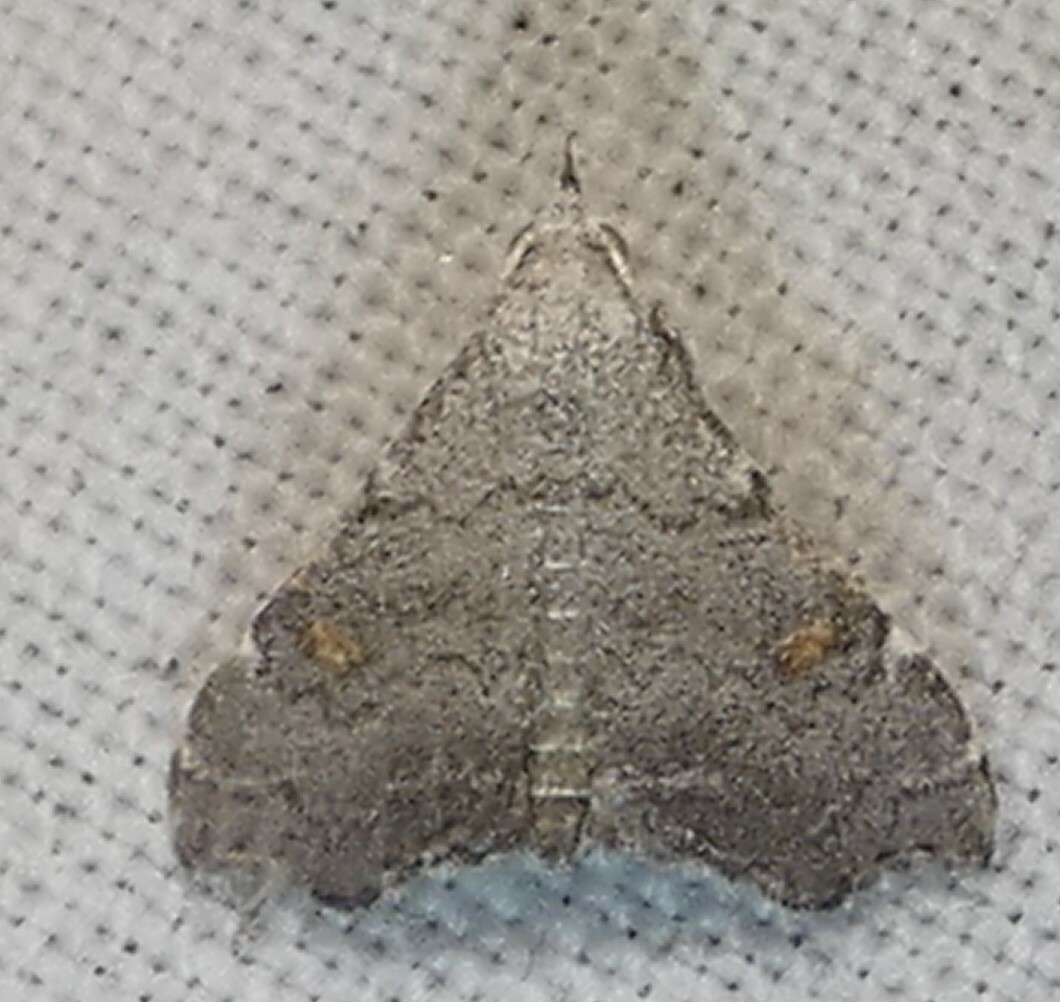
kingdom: Animalia
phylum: Arthropoda
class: Insecta
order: Lepidoptera
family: Erebidae
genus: Redectis
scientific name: Redectis pygmaea
